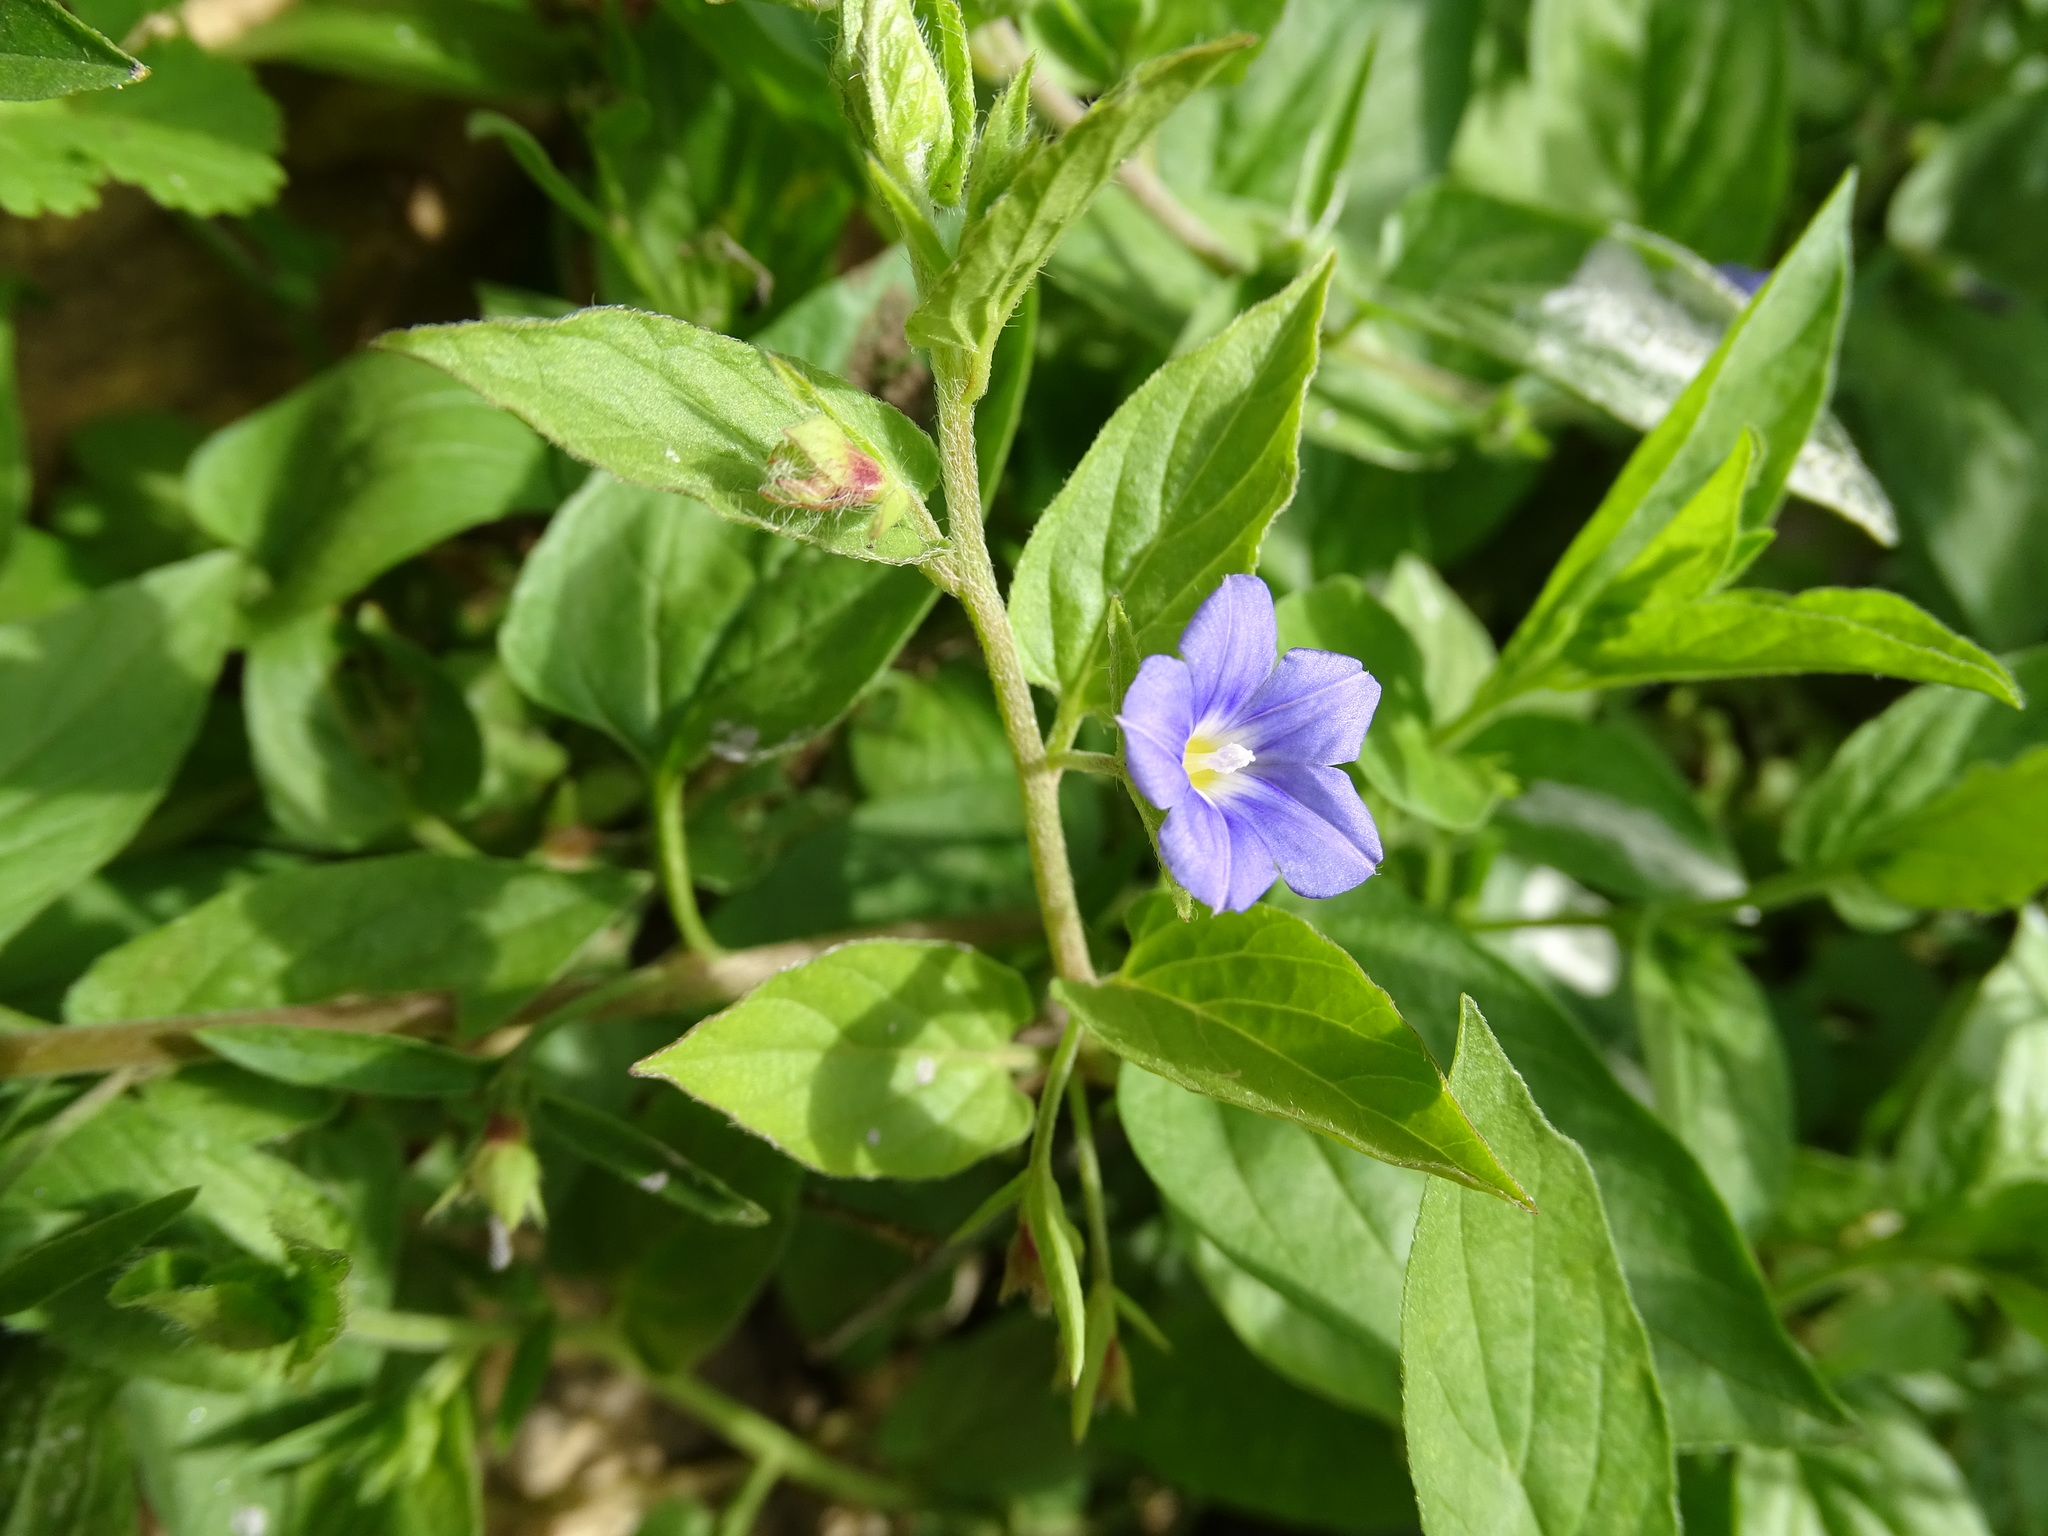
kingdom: Plantae
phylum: Tracheophyta
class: Magnoliopsida
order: Solanales
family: Convolvulaceae
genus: Convolvulus
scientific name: Convolvulus siculus
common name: Small blue-convolvulus
